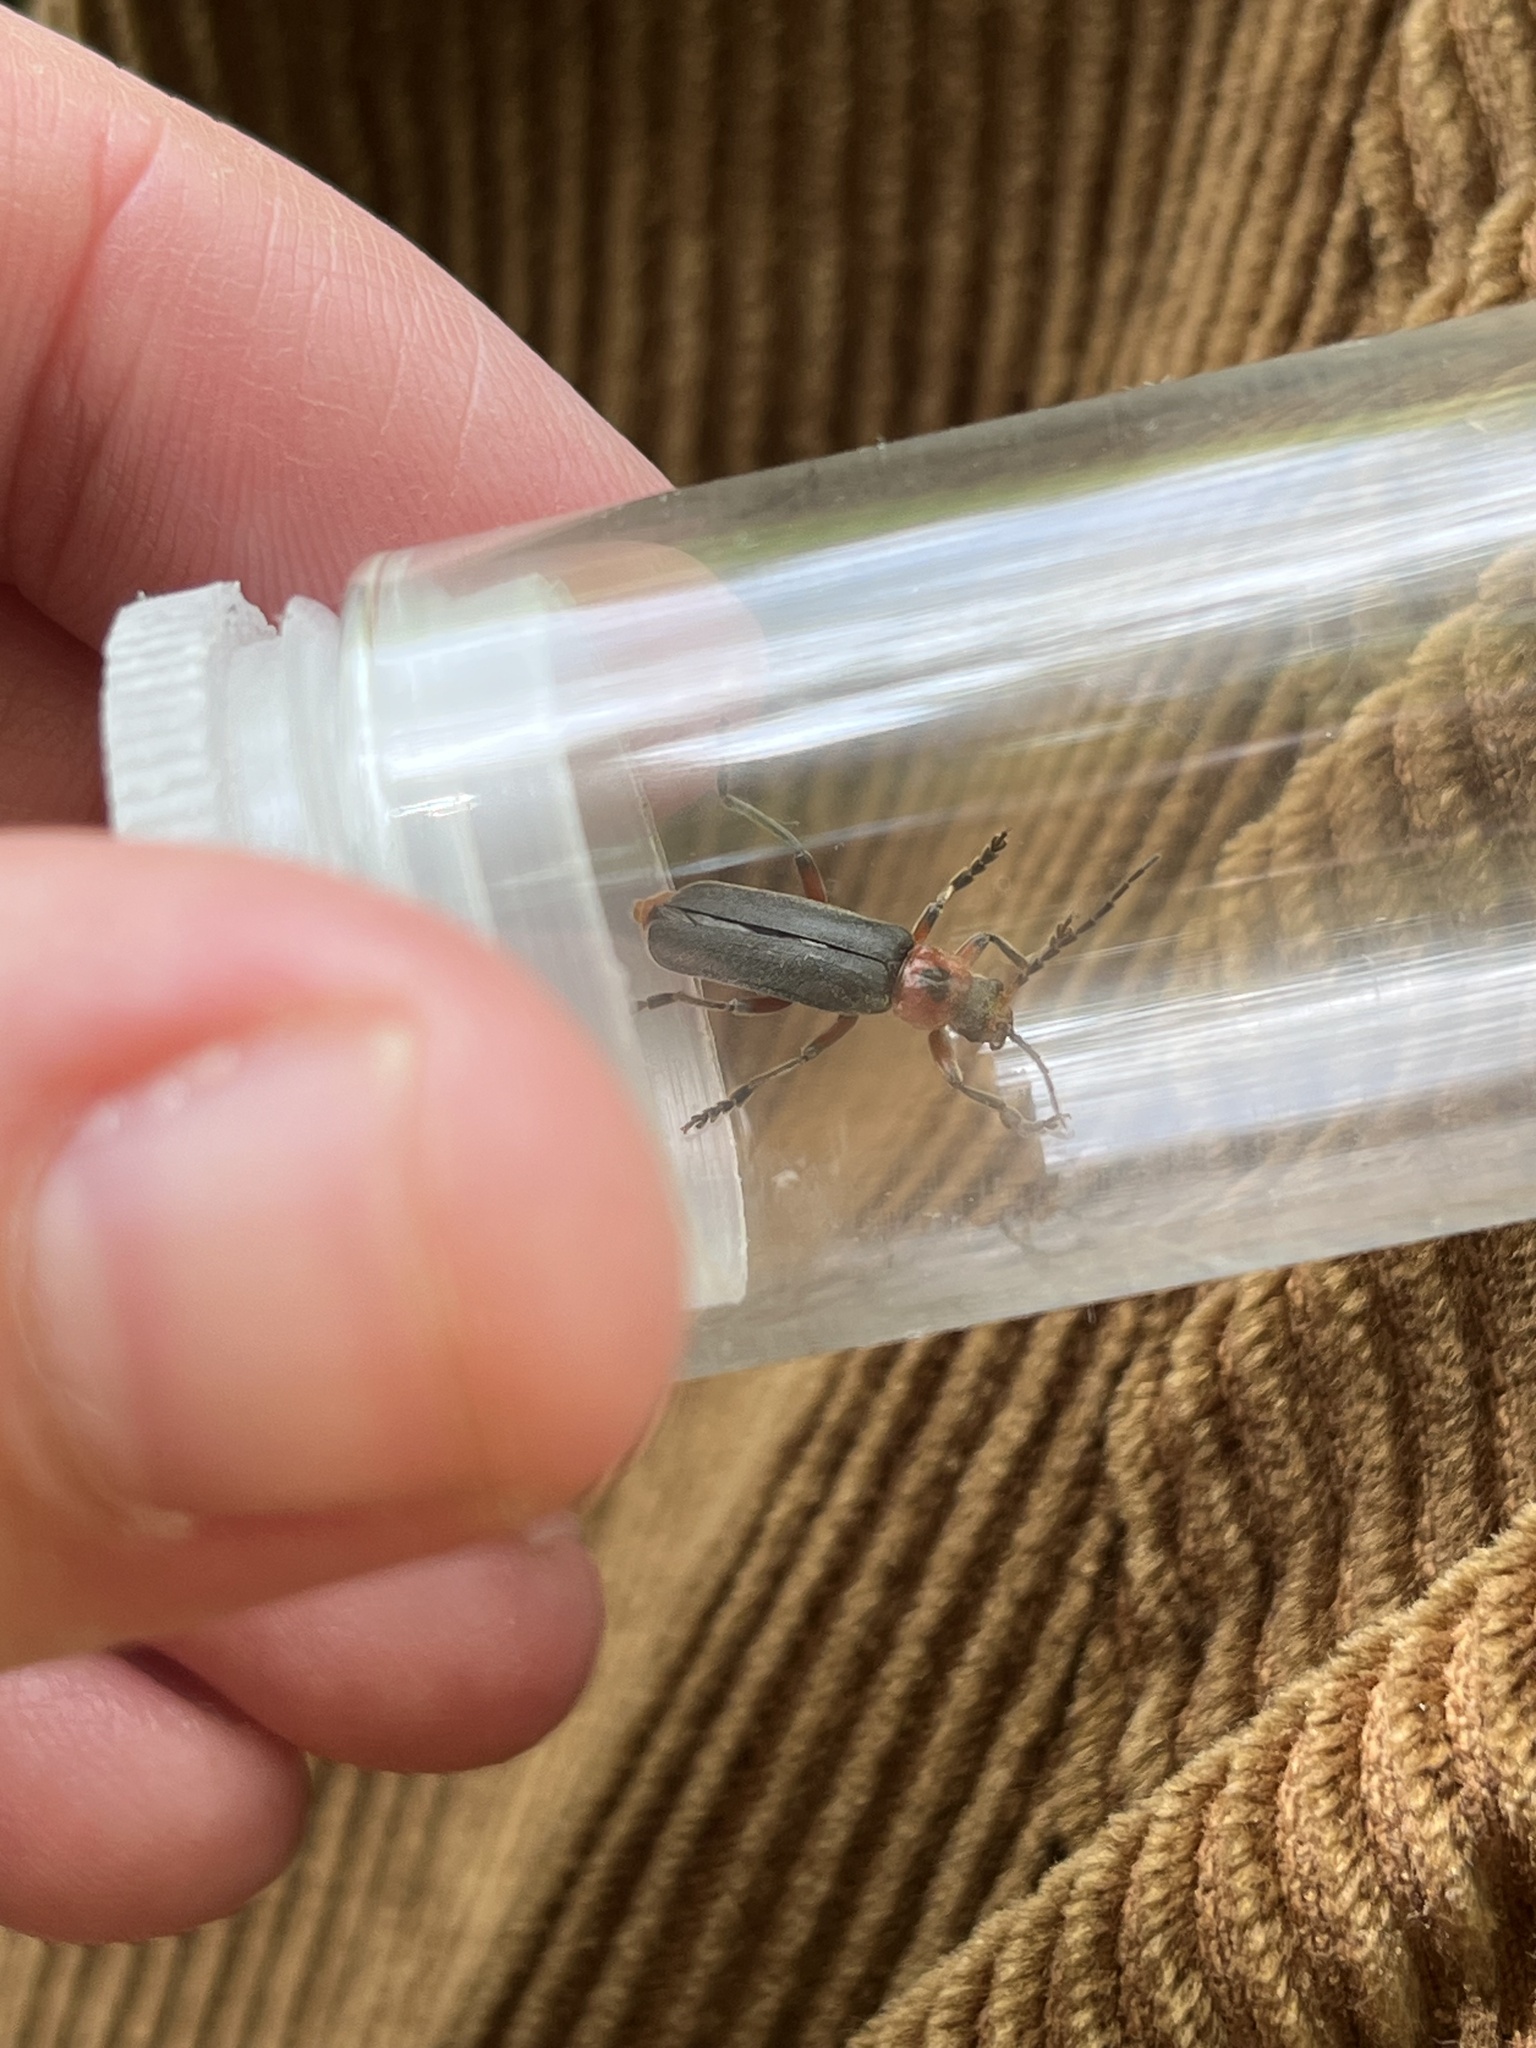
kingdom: Animalia
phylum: Arthropoda
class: Insecta
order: Coleoptera
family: Cantharidae
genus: Cantharis
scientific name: Cantharis rustica
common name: Soldier beetle
